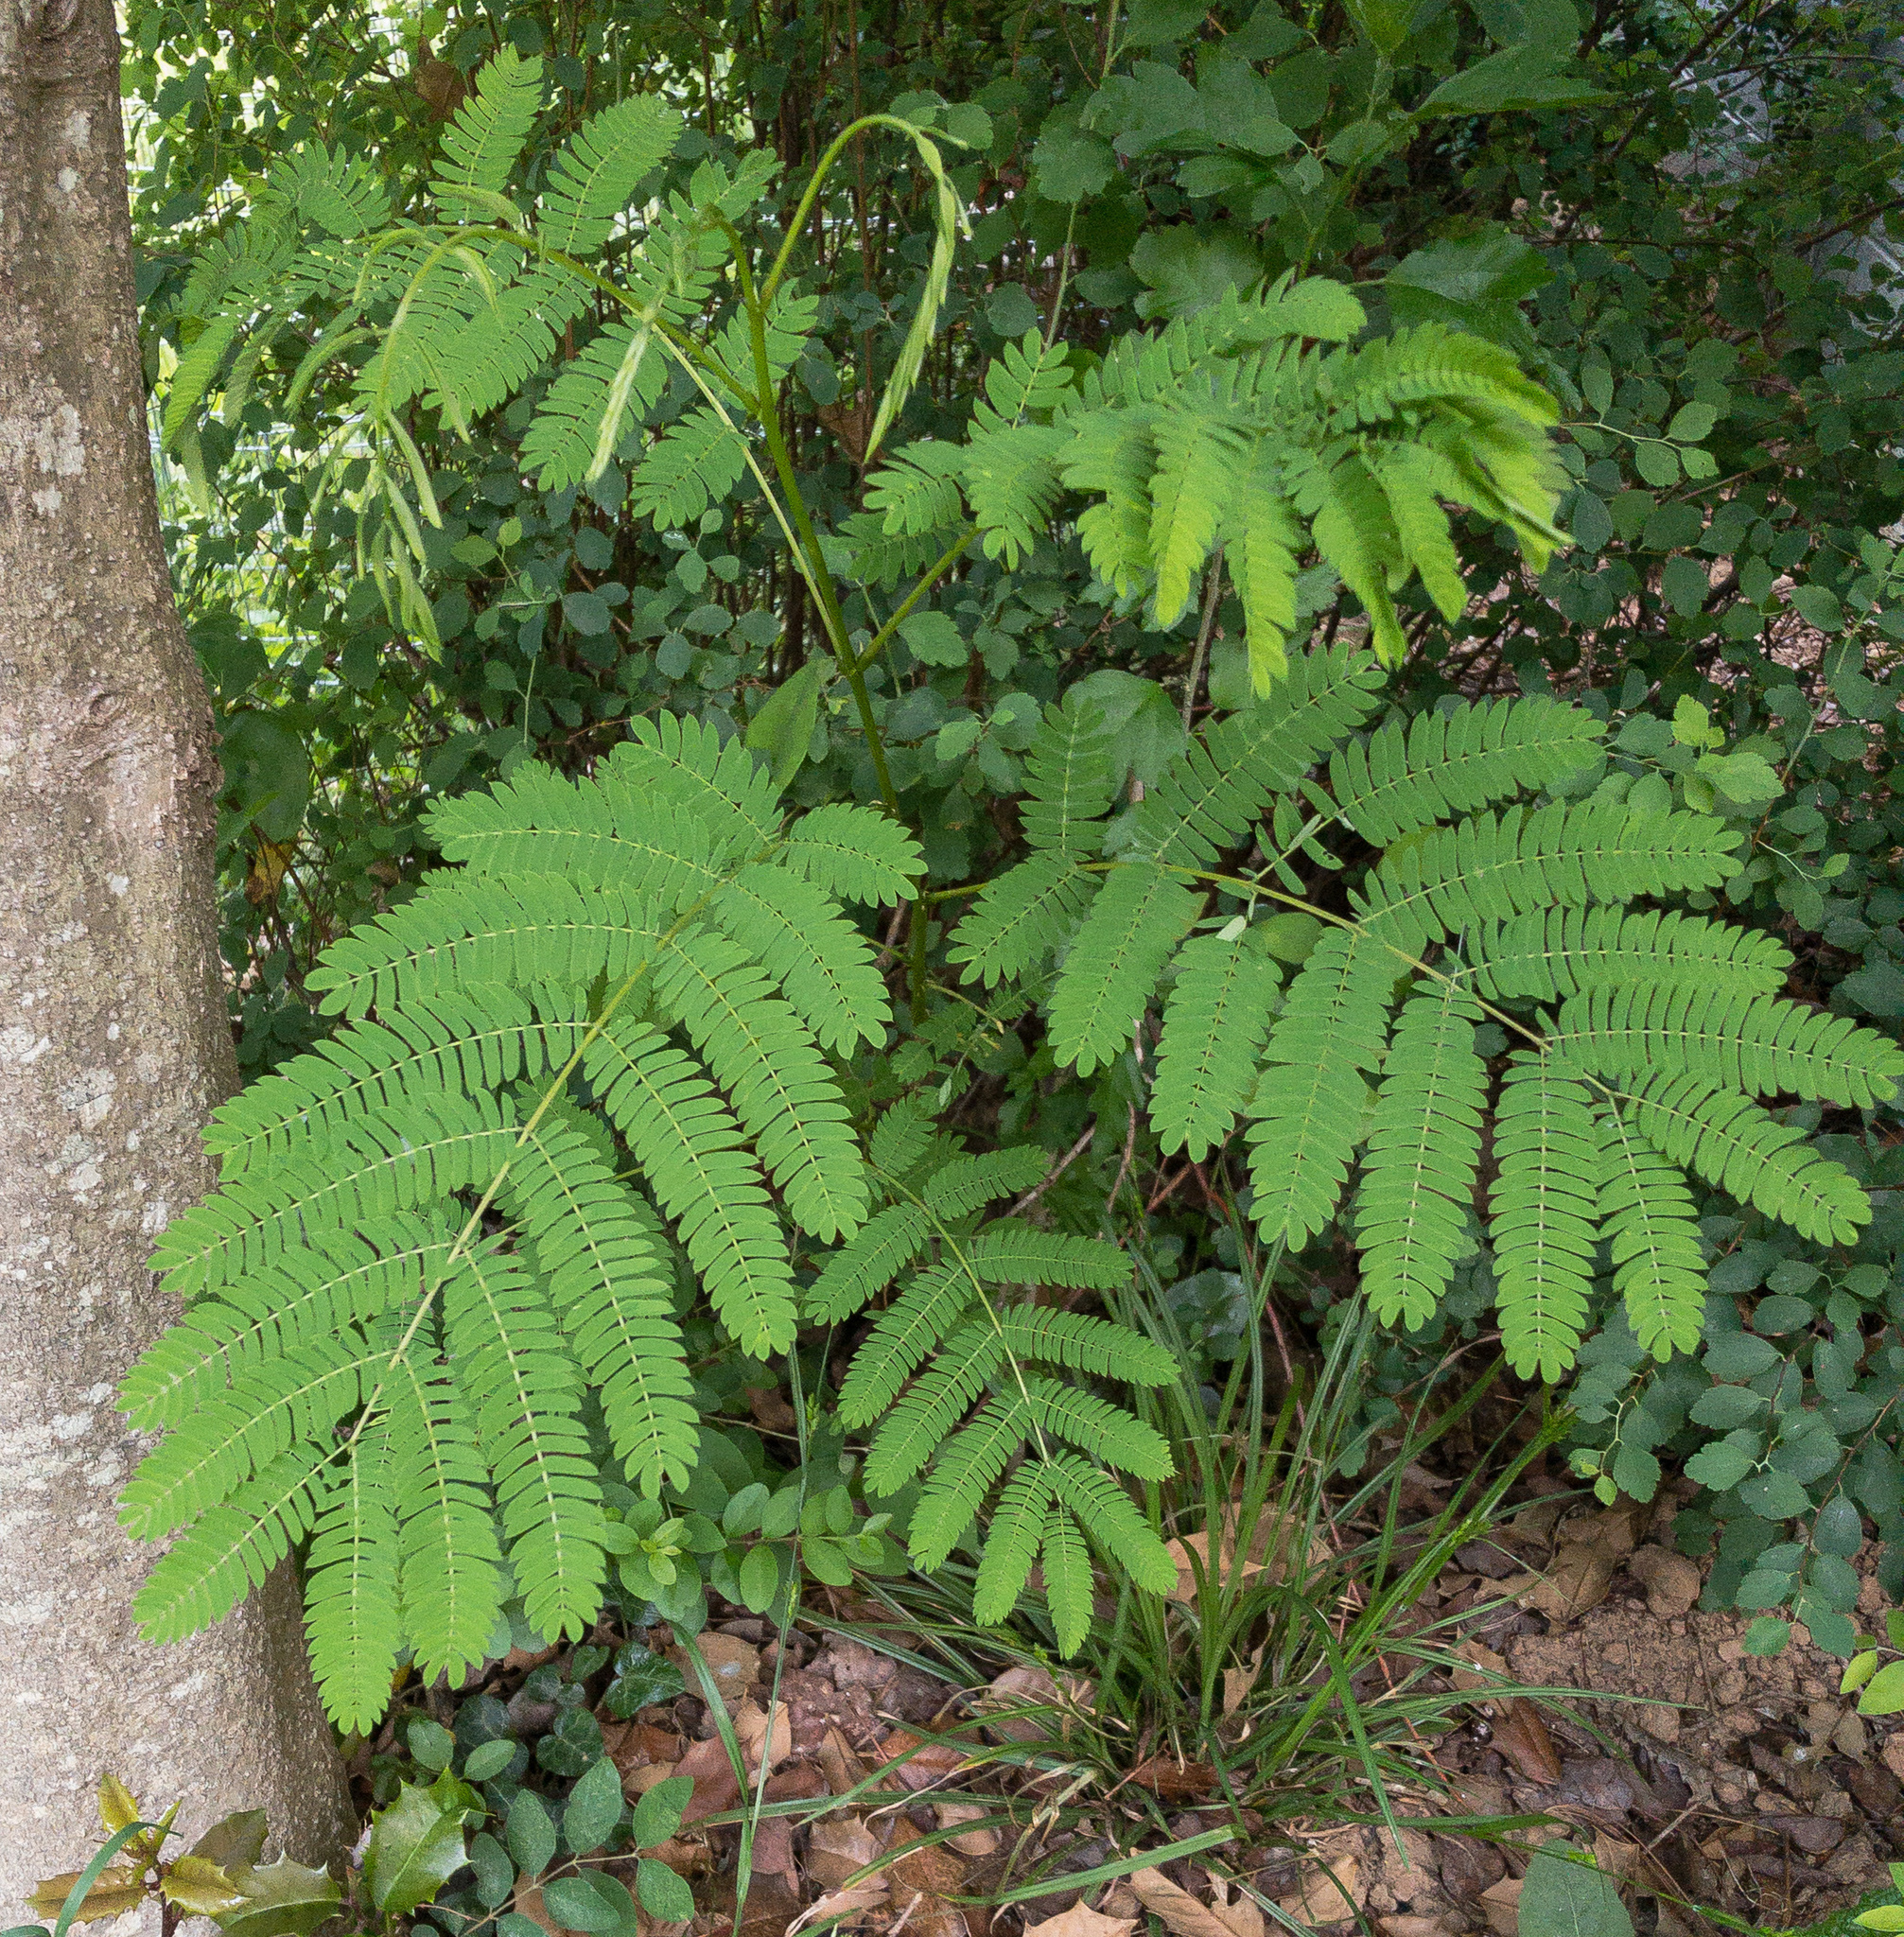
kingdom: Plantae
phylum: Tracheophyta
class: Magnoliopsida
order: Fabales
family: Fabaceae
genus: Albizia
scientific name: Albizia julibrissin
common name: Silktree
